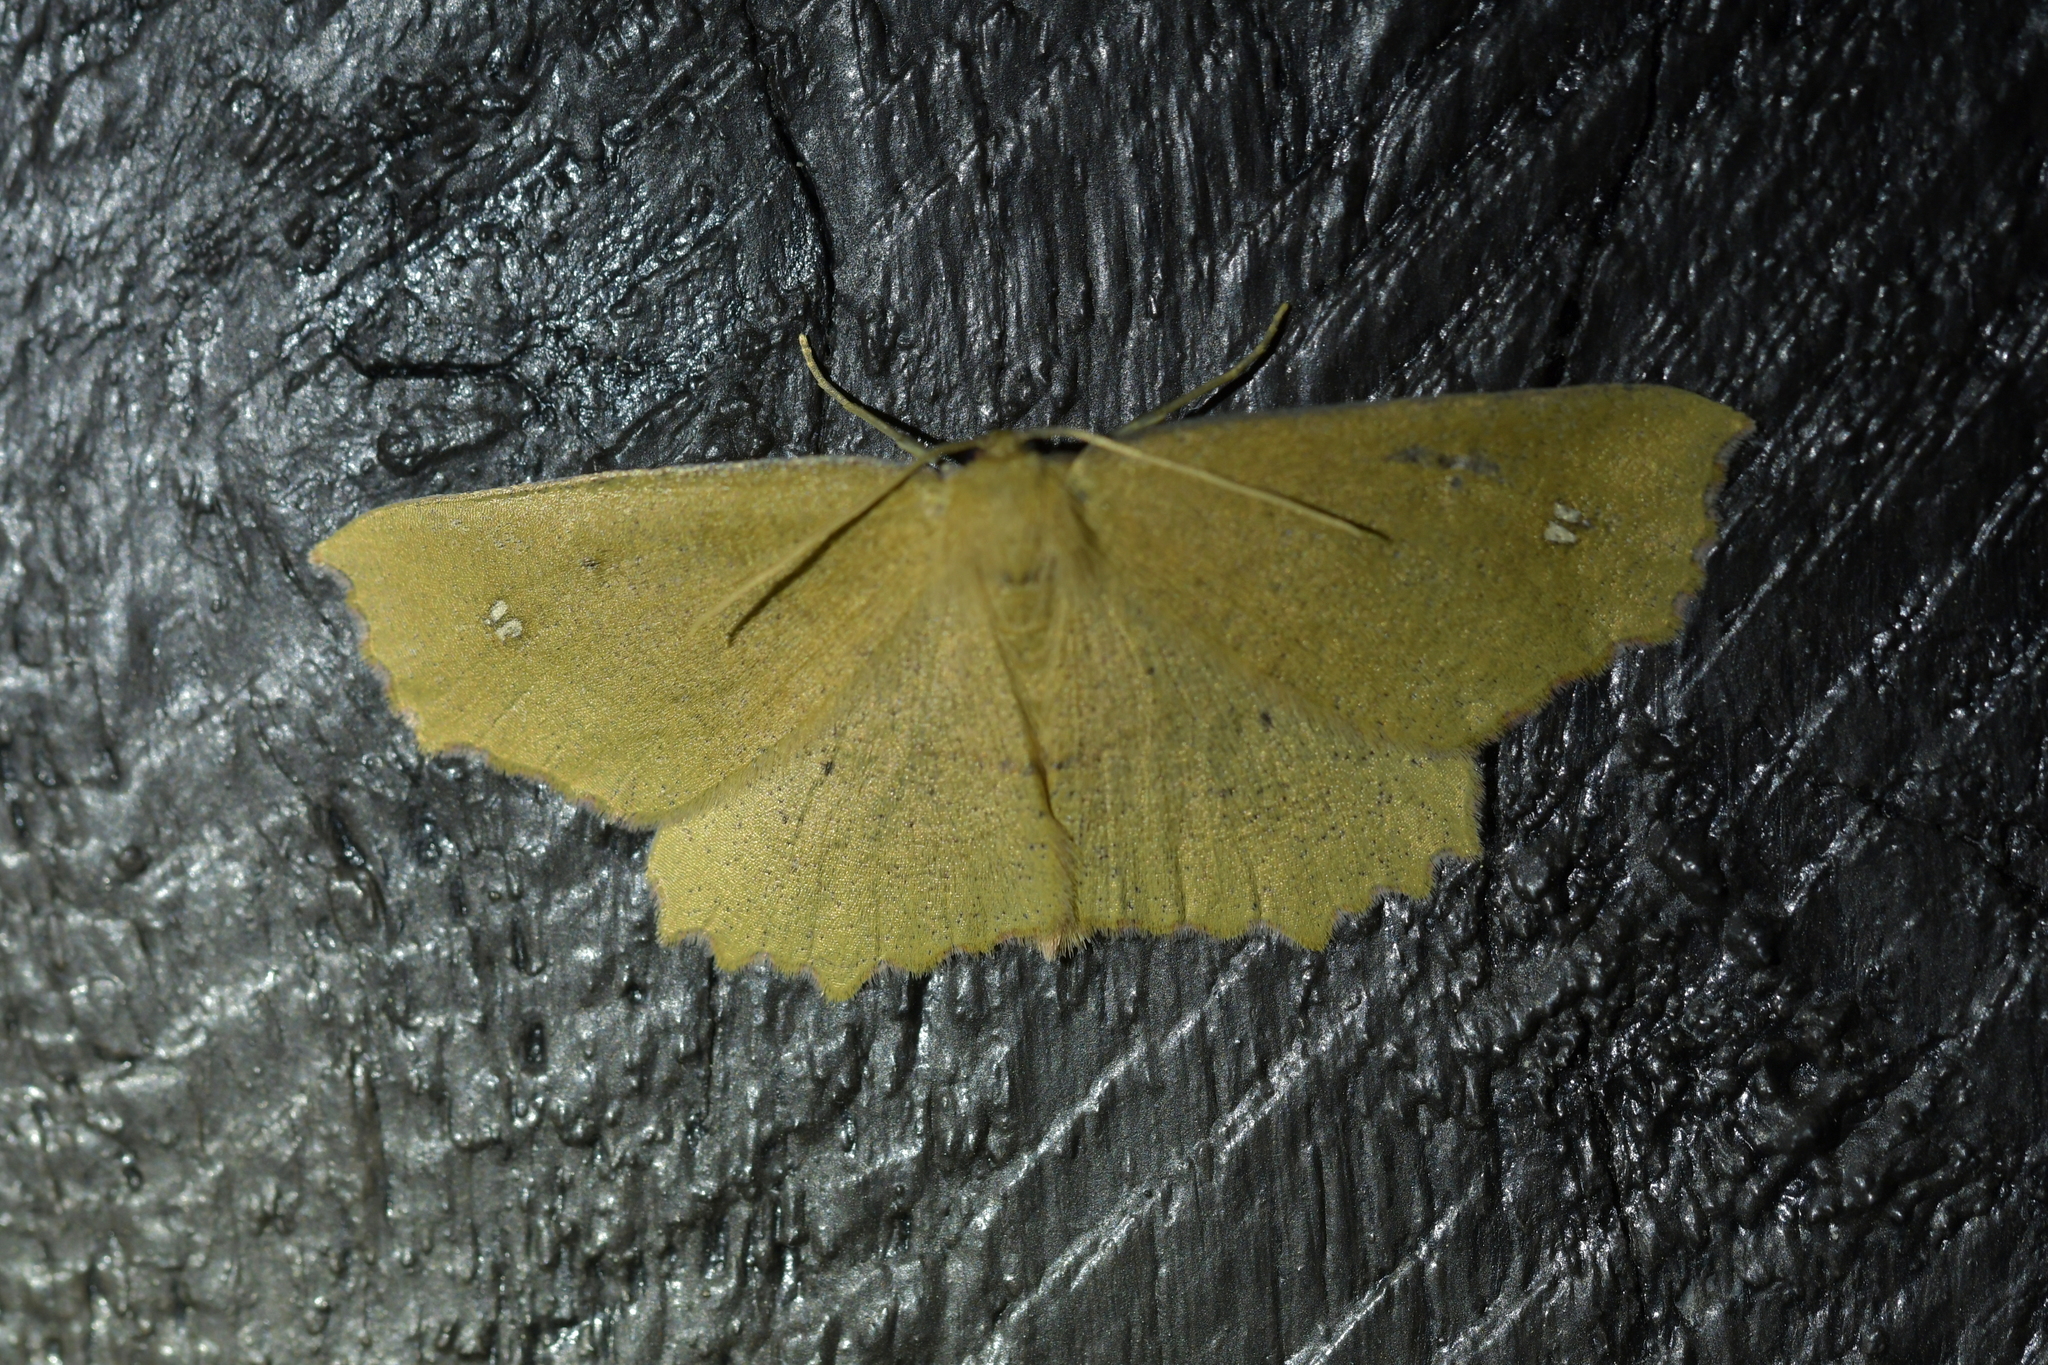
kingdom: Animalia
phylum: Arthropoda
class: Insecta
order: Lepidoptera
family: Geometridae
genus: Xyridacma
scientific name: Xyridacma ustaria
